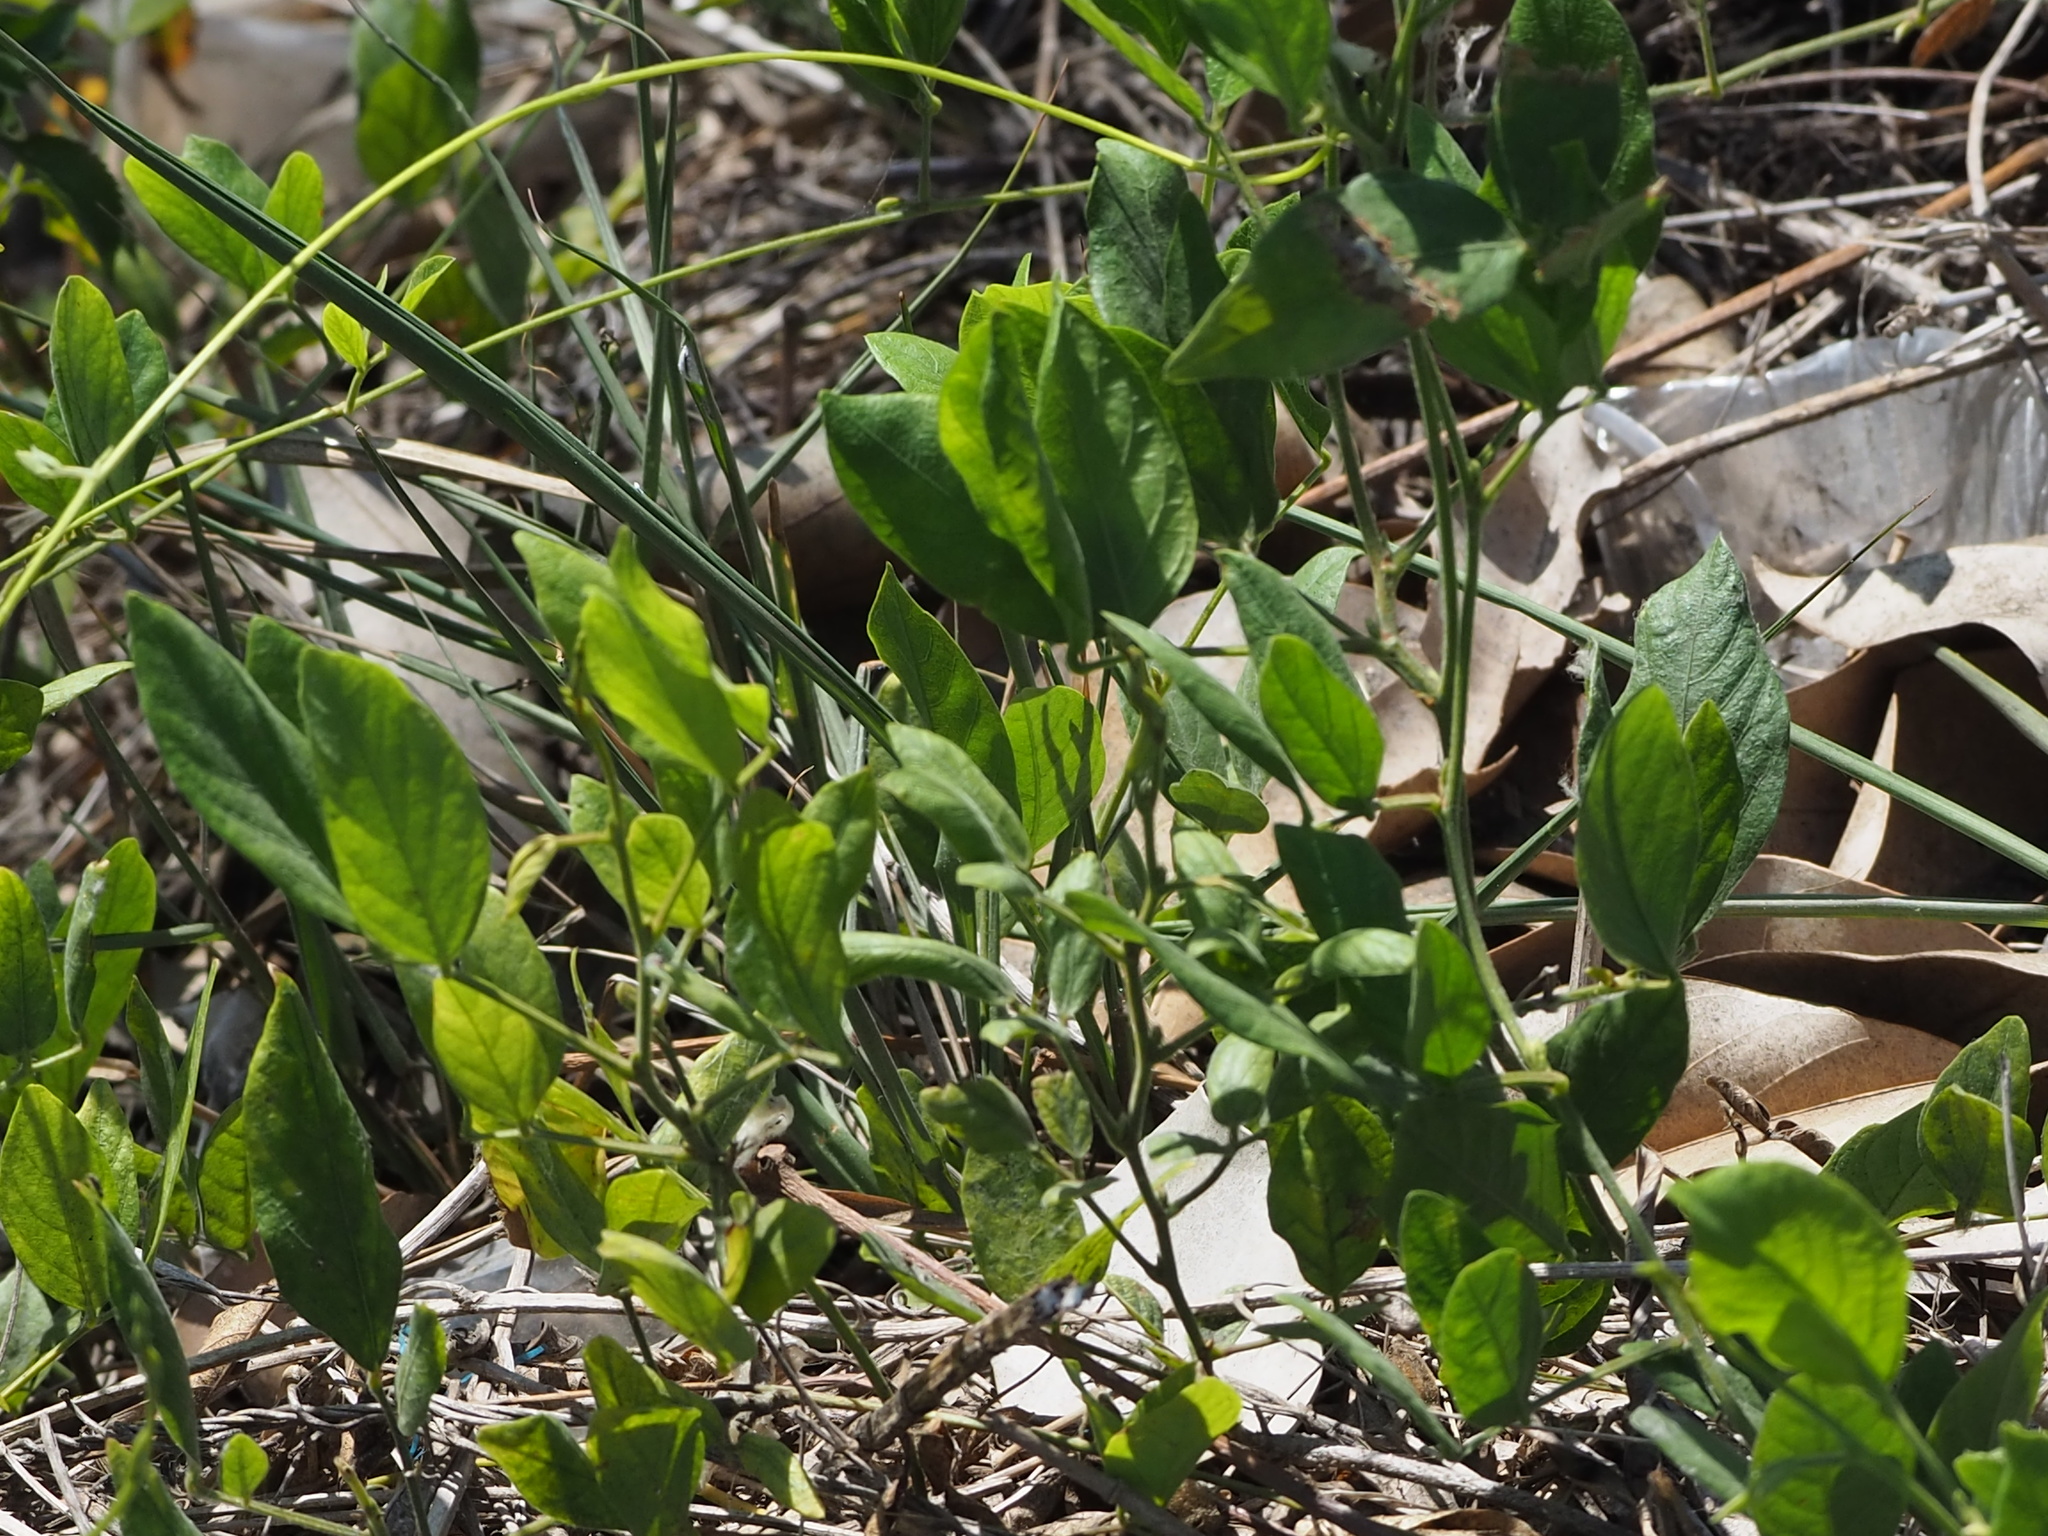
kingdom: Plantae
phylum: Tracheophyta
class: Magnoliopsida
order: Fabales
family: Fabaceae
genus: Centrosema
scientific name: Centrosema pubescens
